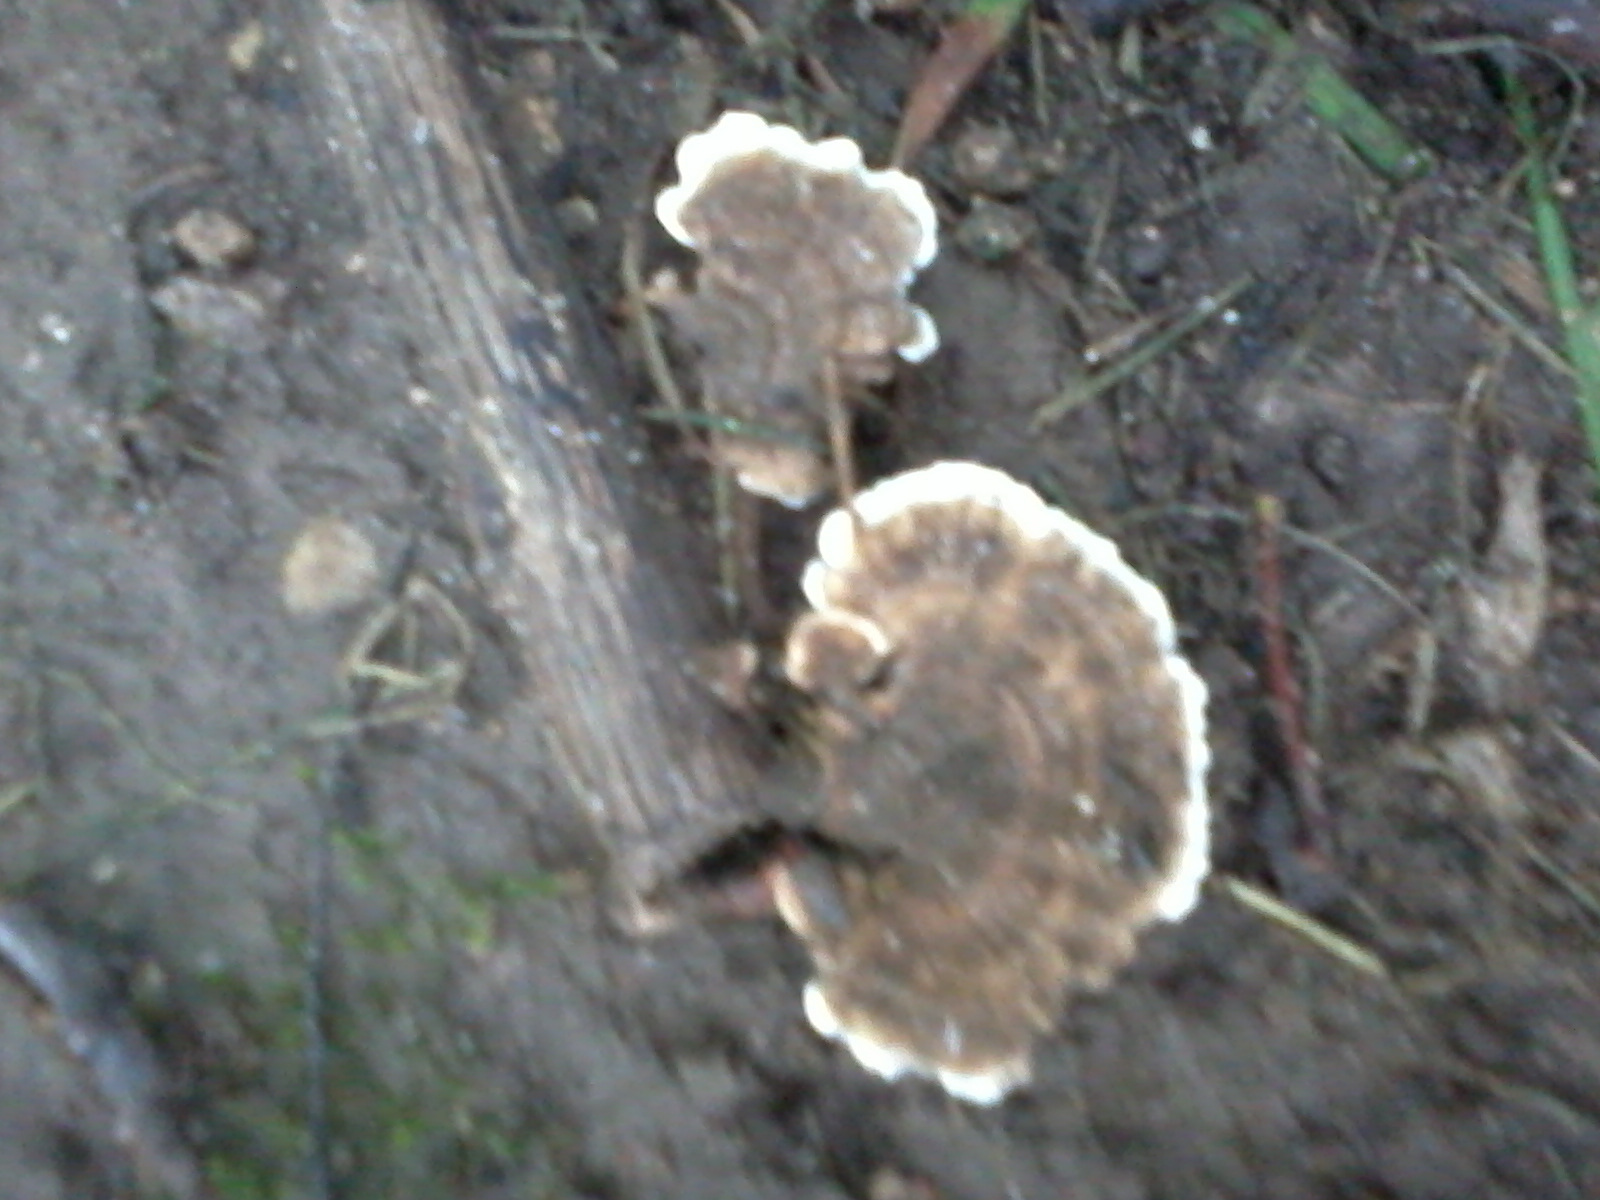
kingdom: Fungi
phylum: Basidiomycota
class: Agaricomycetes
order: Polyporales
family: Polyporaceae
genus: Trametes
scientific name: Trametes versicolor
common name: Turkeytail
